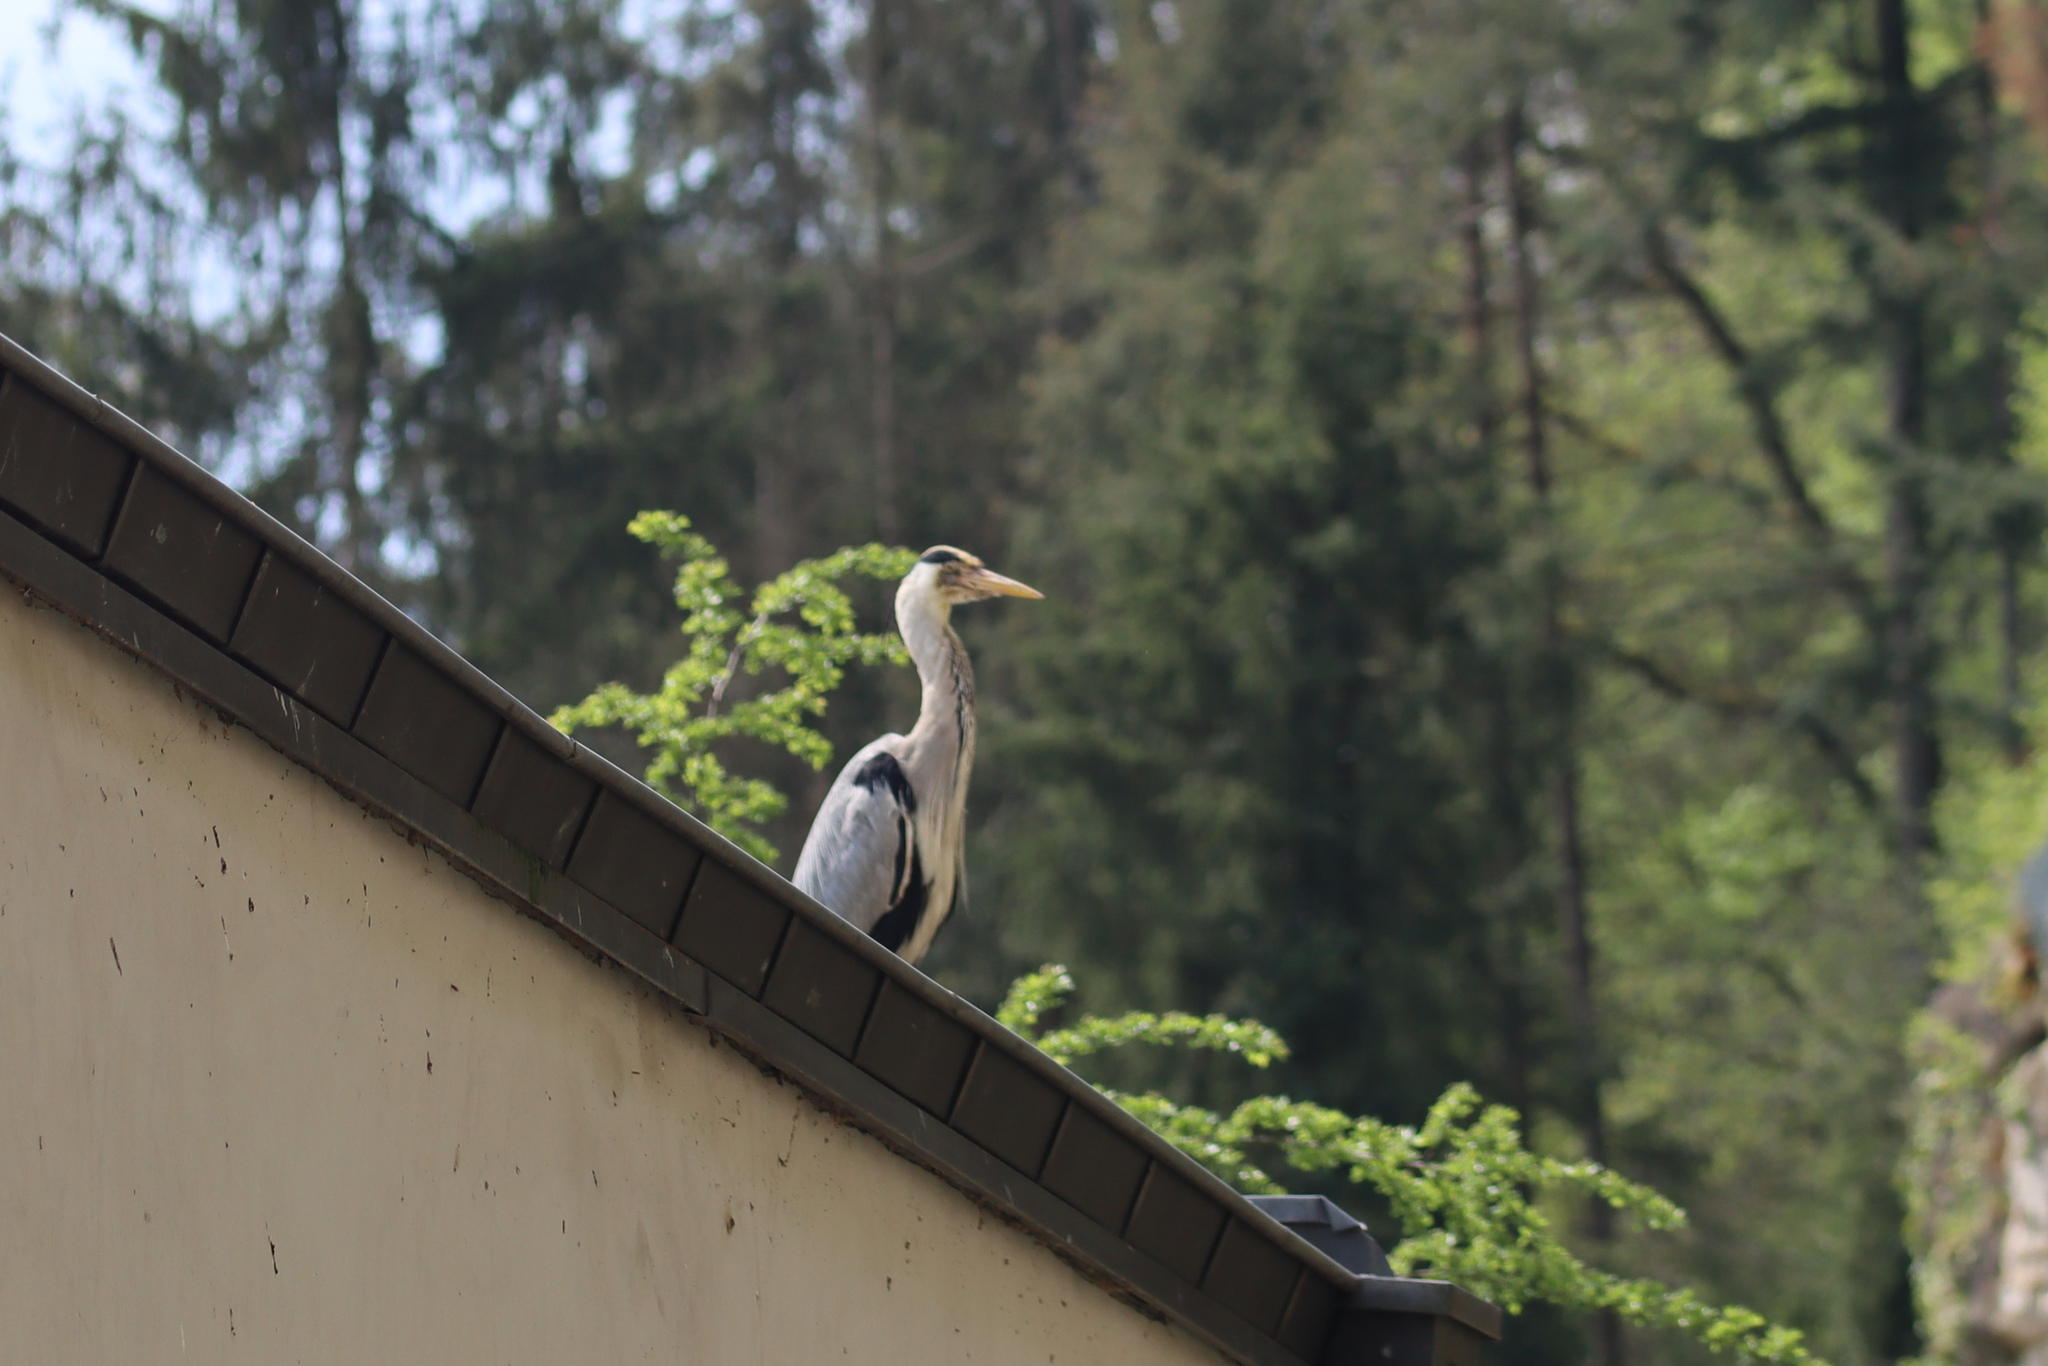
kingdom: Animalia
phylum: Chordata
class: Aves
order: Pelecaniformes
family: Ardeidae
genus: Ardea
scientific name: Ardea cinerea
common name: Grey heron
